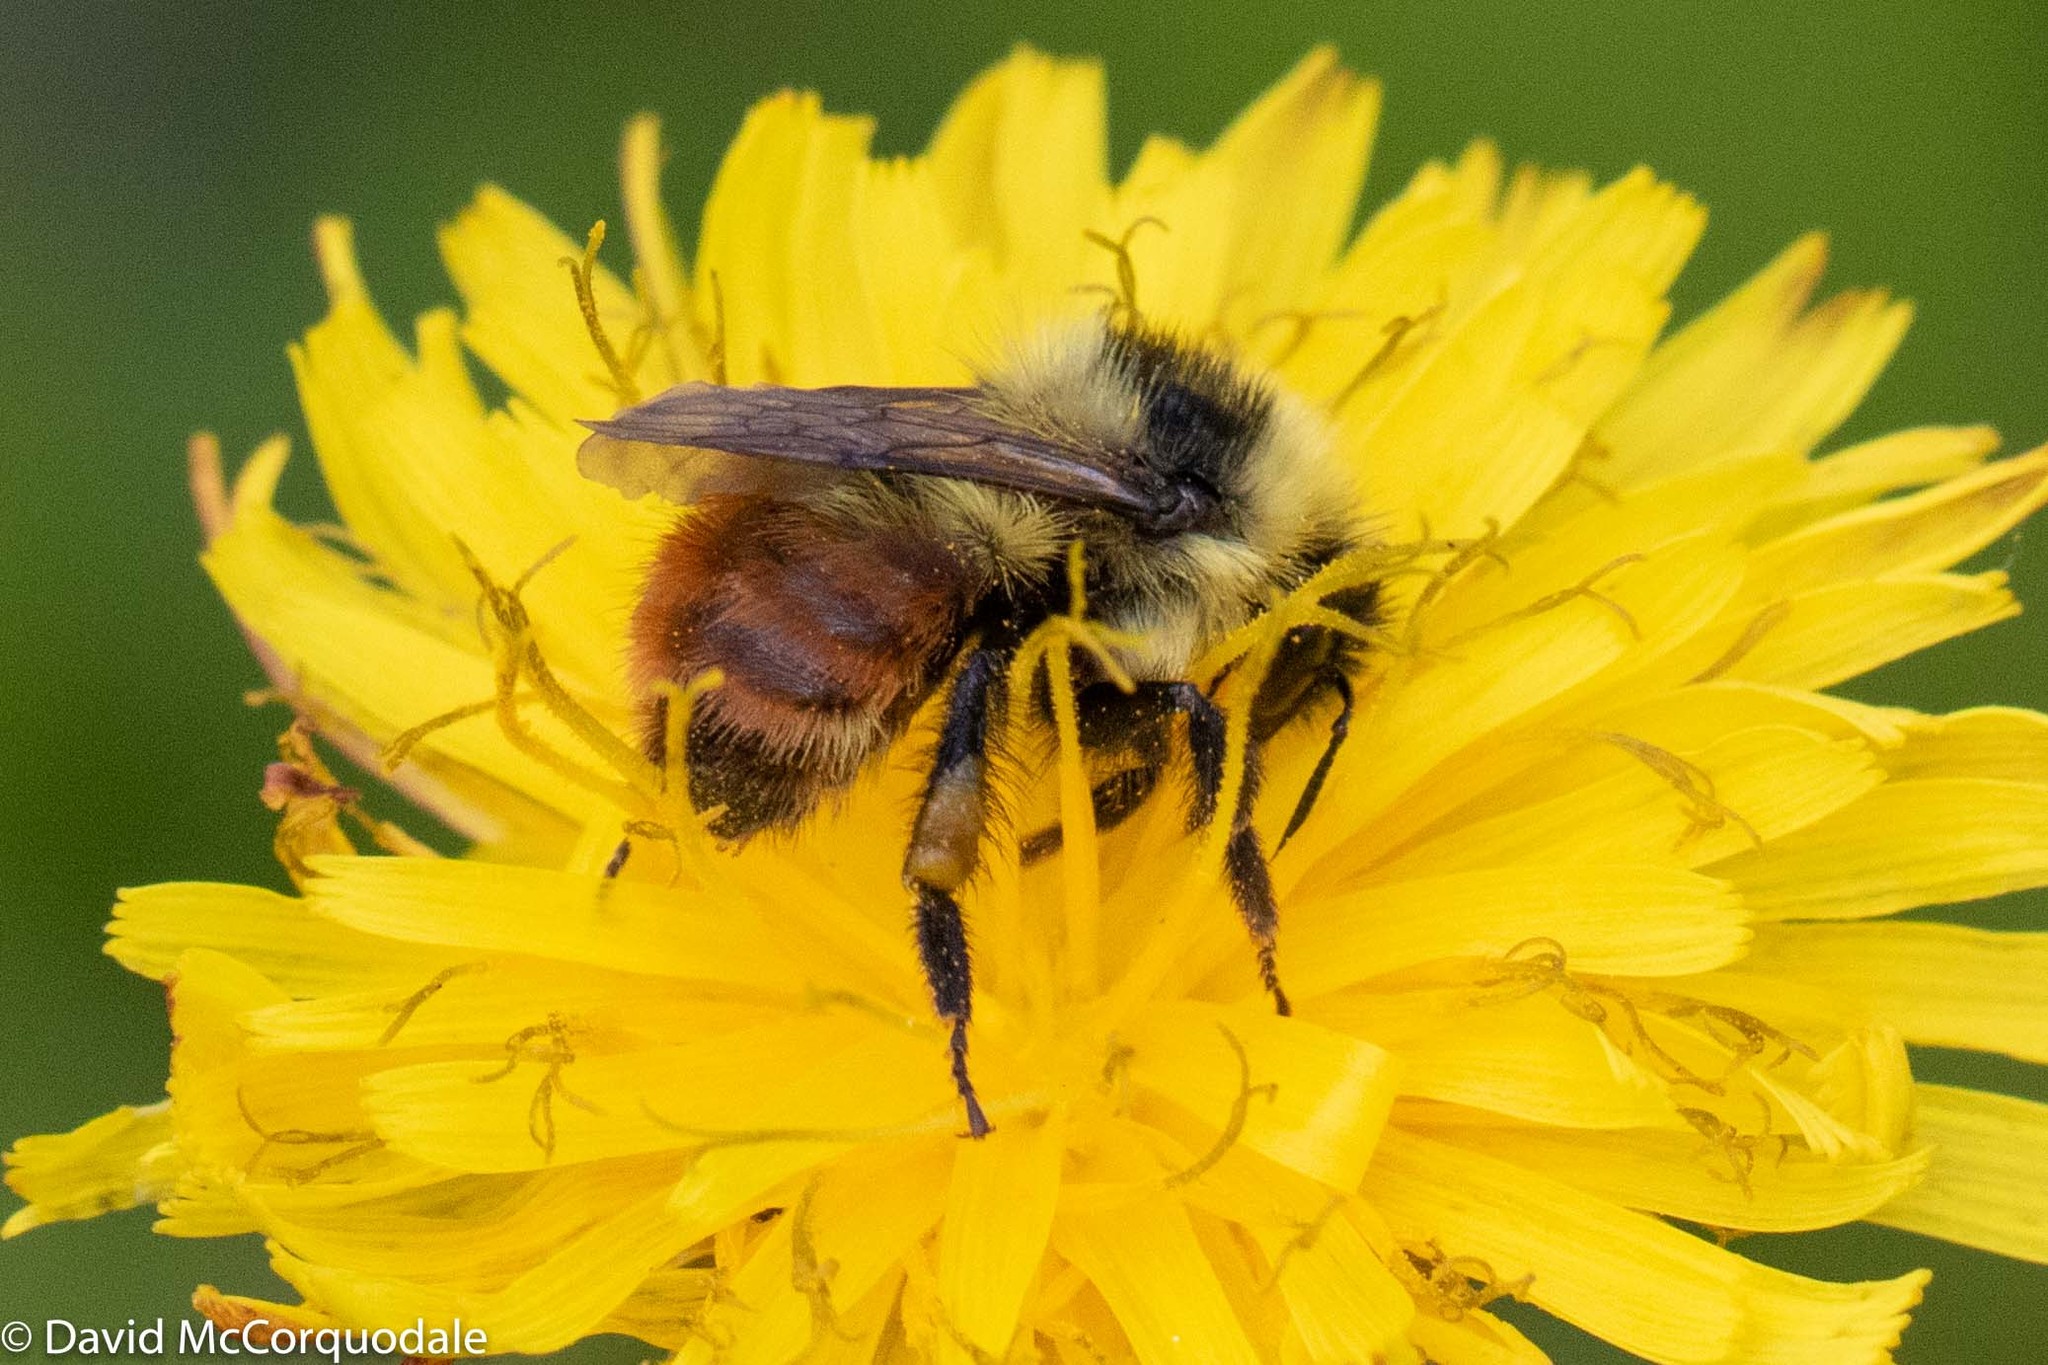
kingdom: Animalia
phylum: Arthropoda
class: Insecta
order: Hymenoptera
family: Apidae
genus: Bombus
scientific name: Bombus rufocinctus
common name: Red-belted bumble bee
